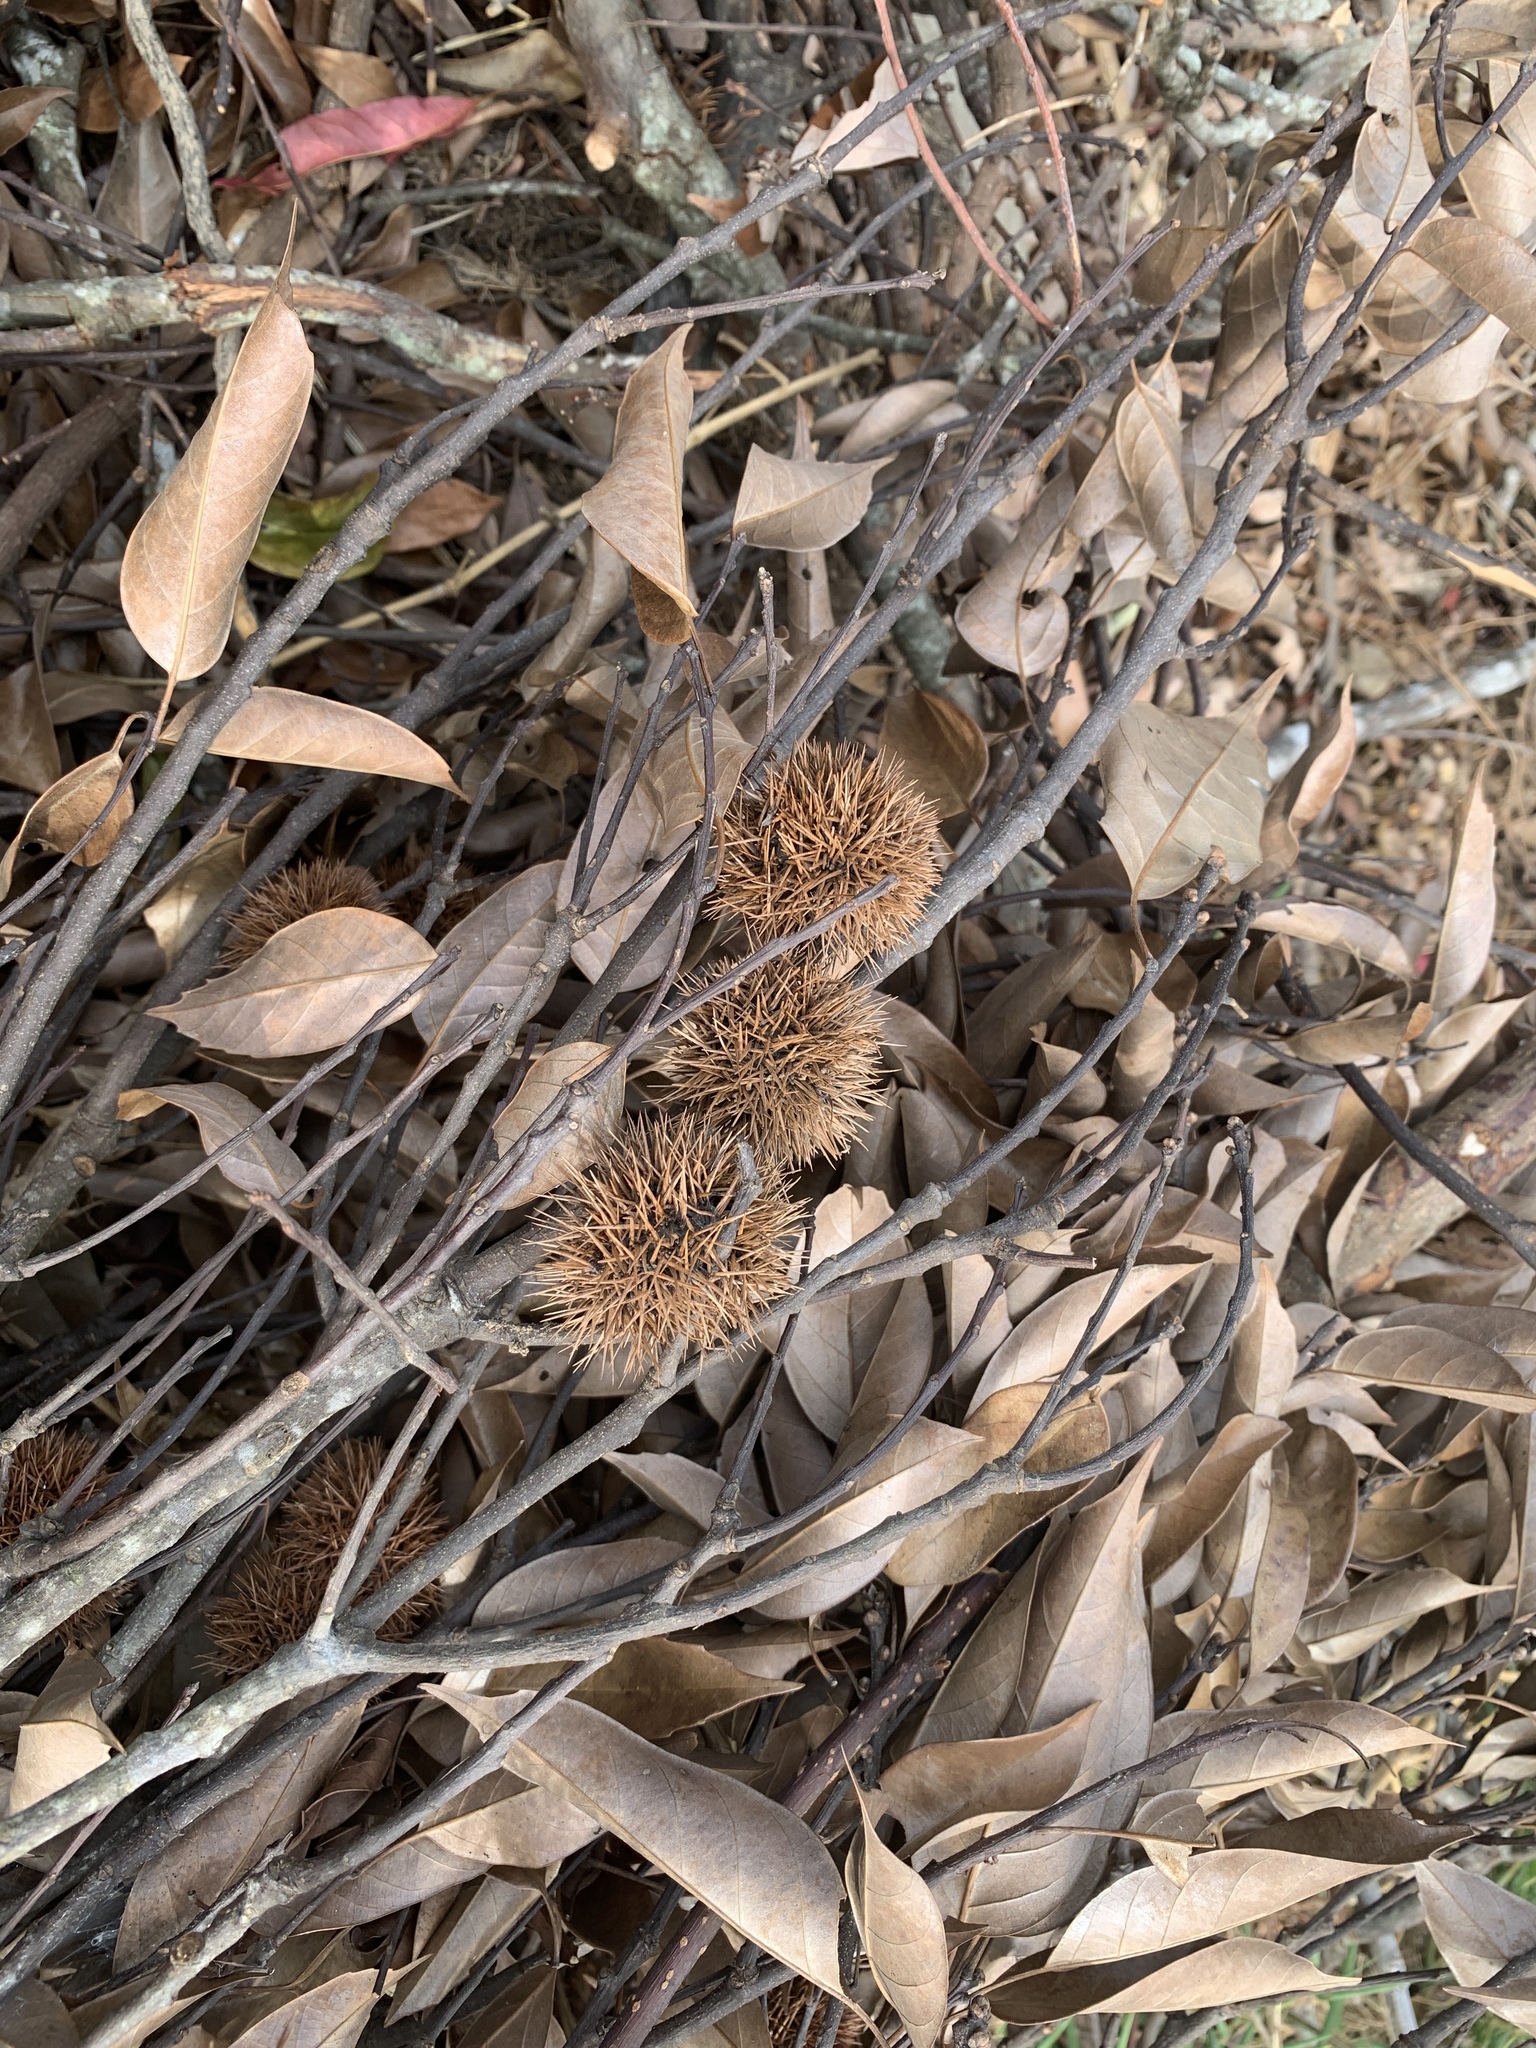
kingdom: Plantae
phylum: Tracheophyta
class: Magnoliopsida
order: Fagales
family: Fagaceae
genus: Castanopsis
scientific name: Castanopsis kawakamii
